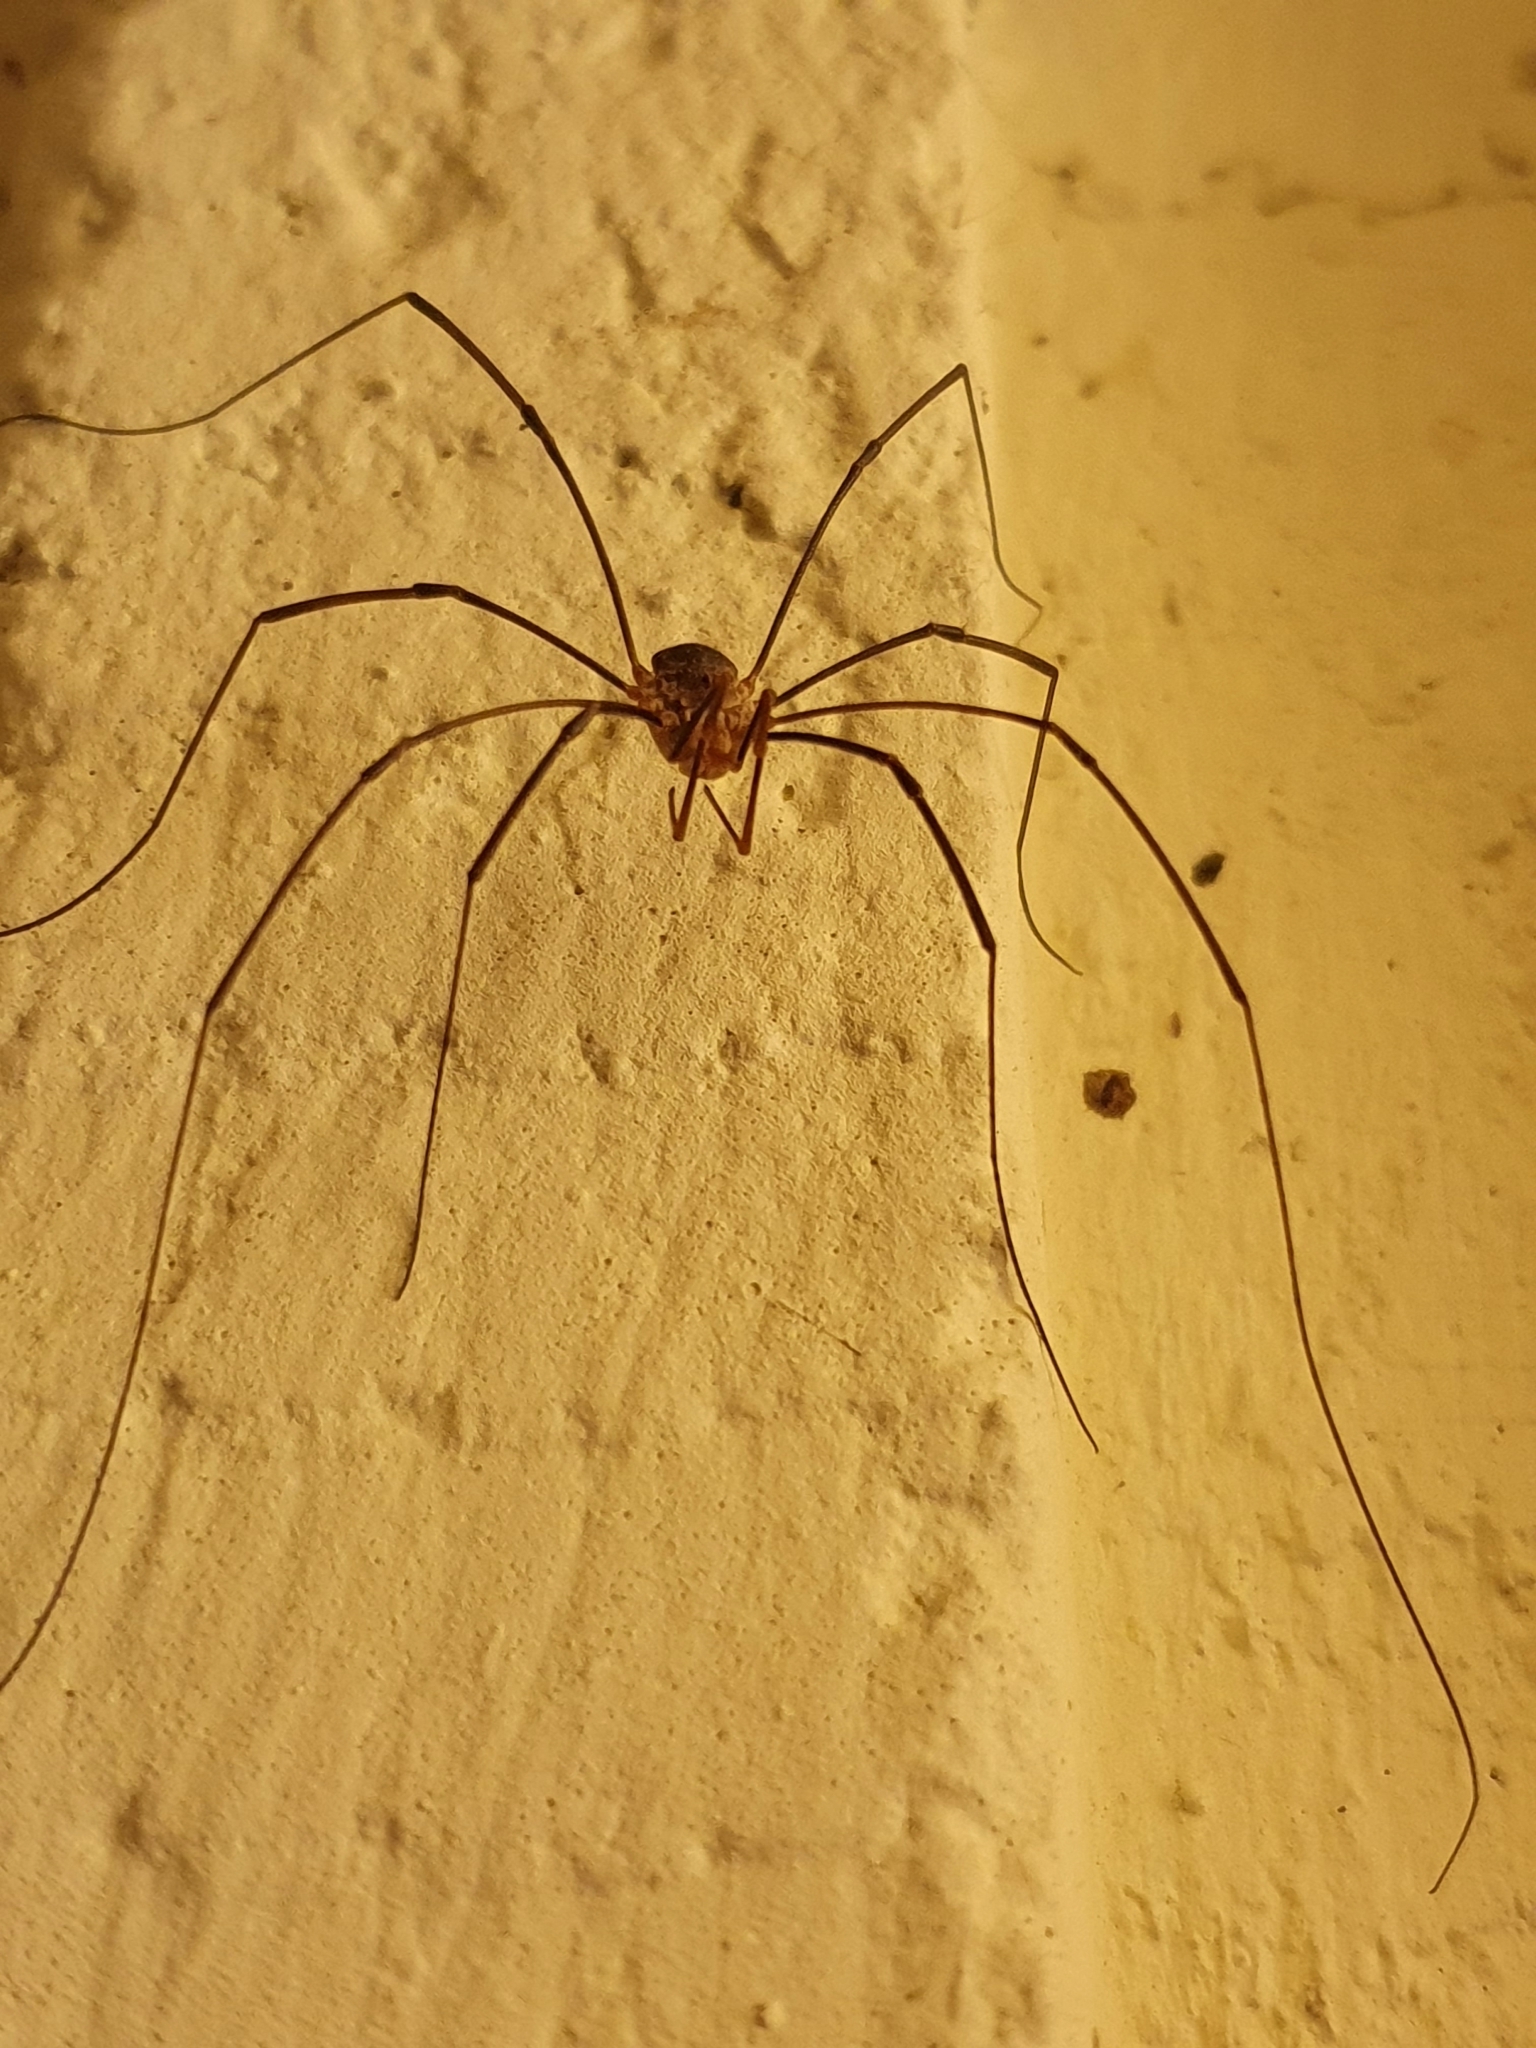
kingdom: Animalia
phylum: Arthropoda
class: Arachnida
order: Opiliones
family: Phalangiidae
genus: Phalangium
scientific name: Phalangium opilio
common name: Daddy longleg
